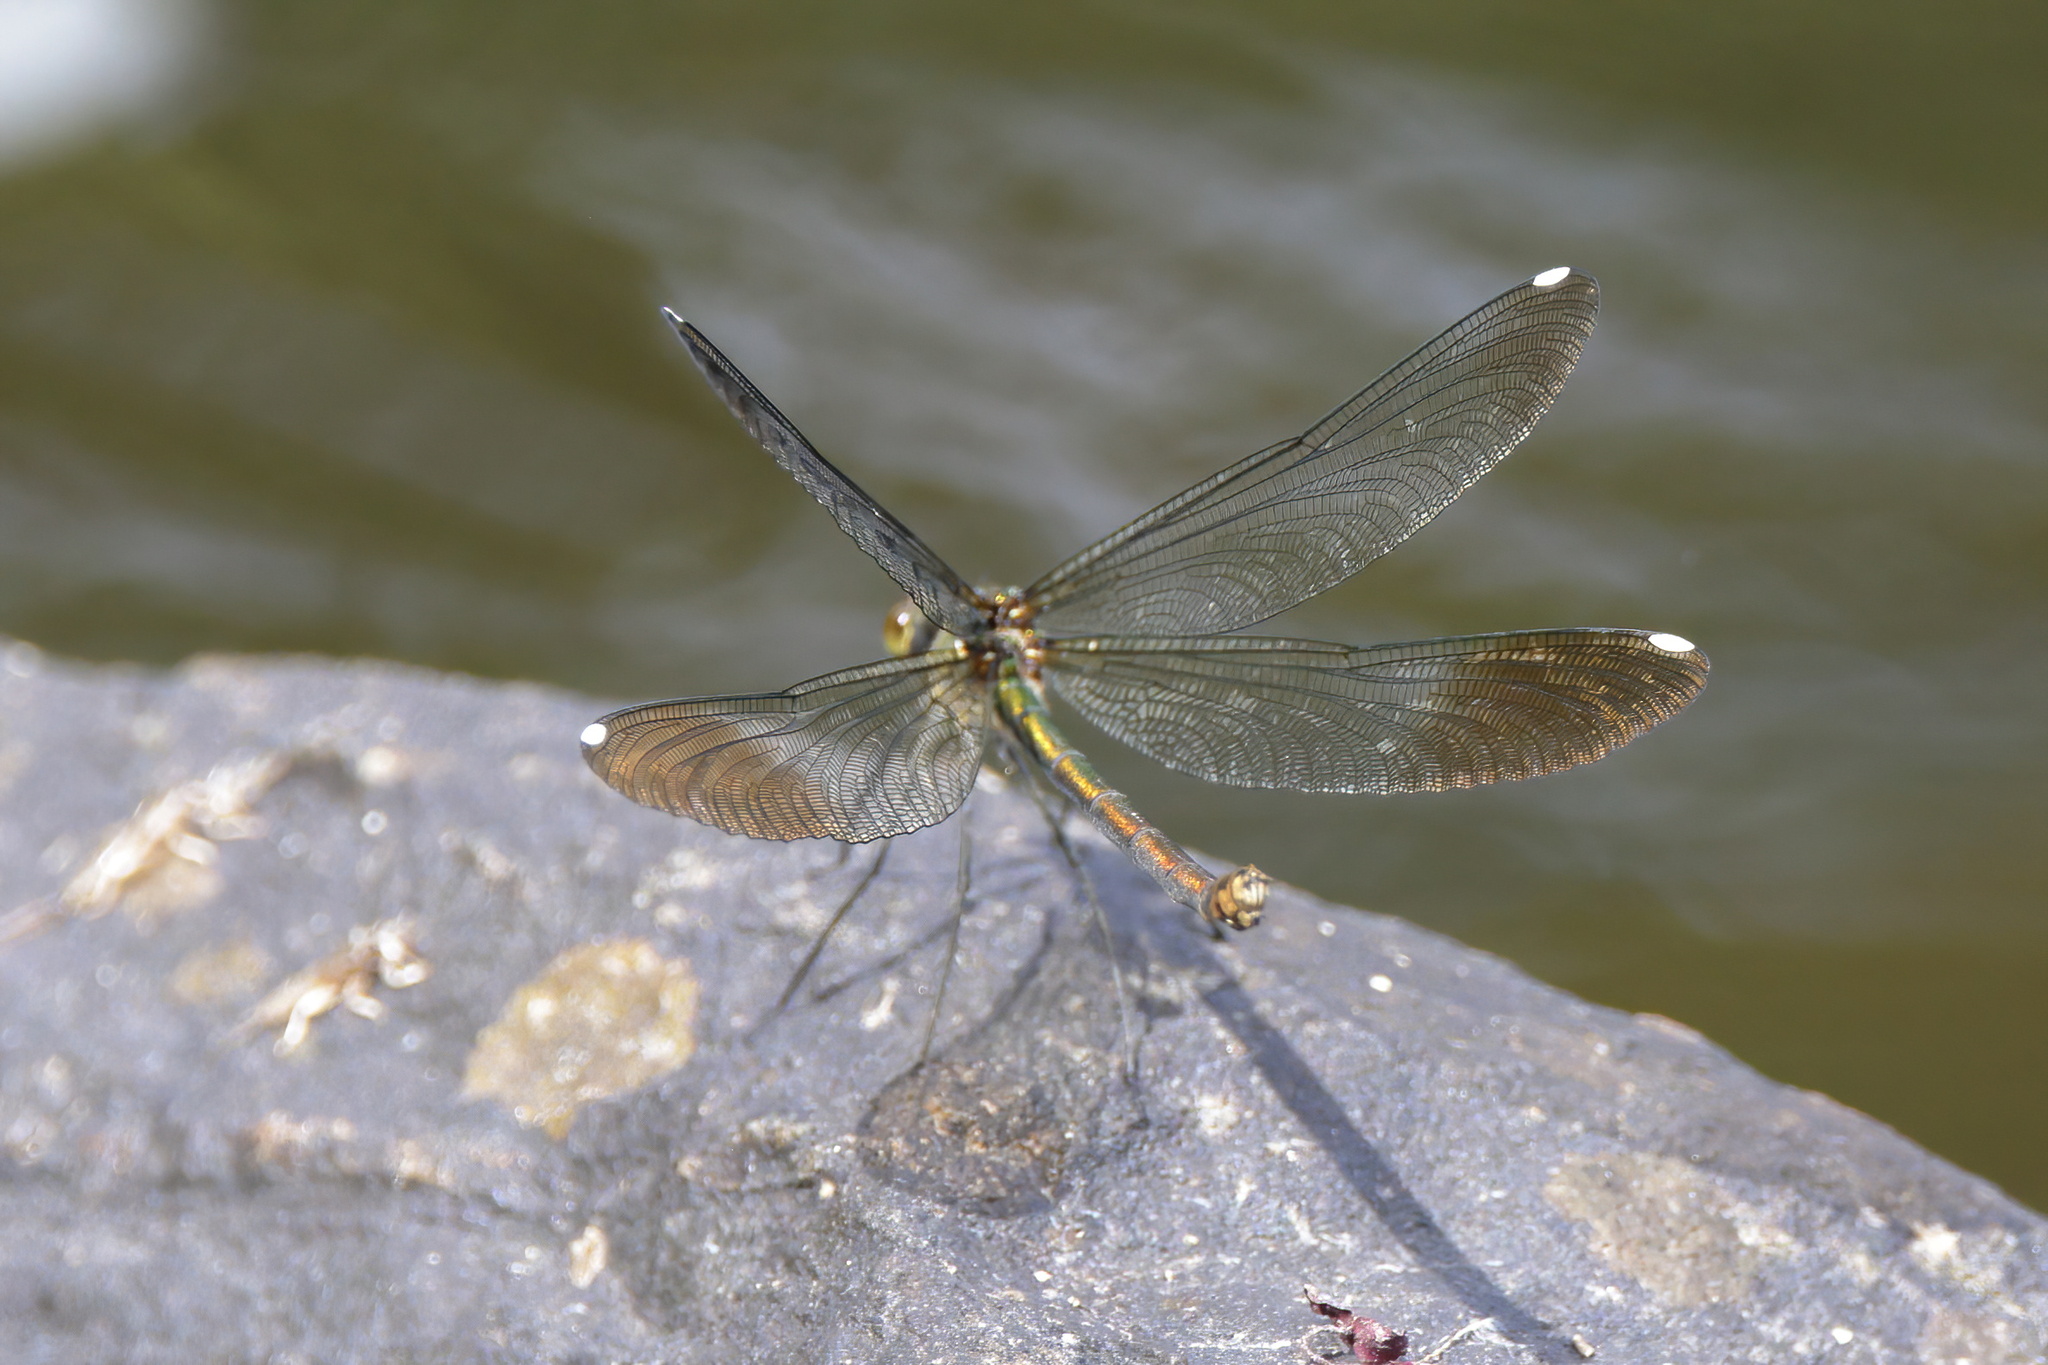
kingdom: Animalia
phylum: Arthropoda
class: Insecta
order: Odonata
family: Calopterygidae
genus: Calopteryx
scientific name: Calopteryx aequabilis
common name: River jewelwing
